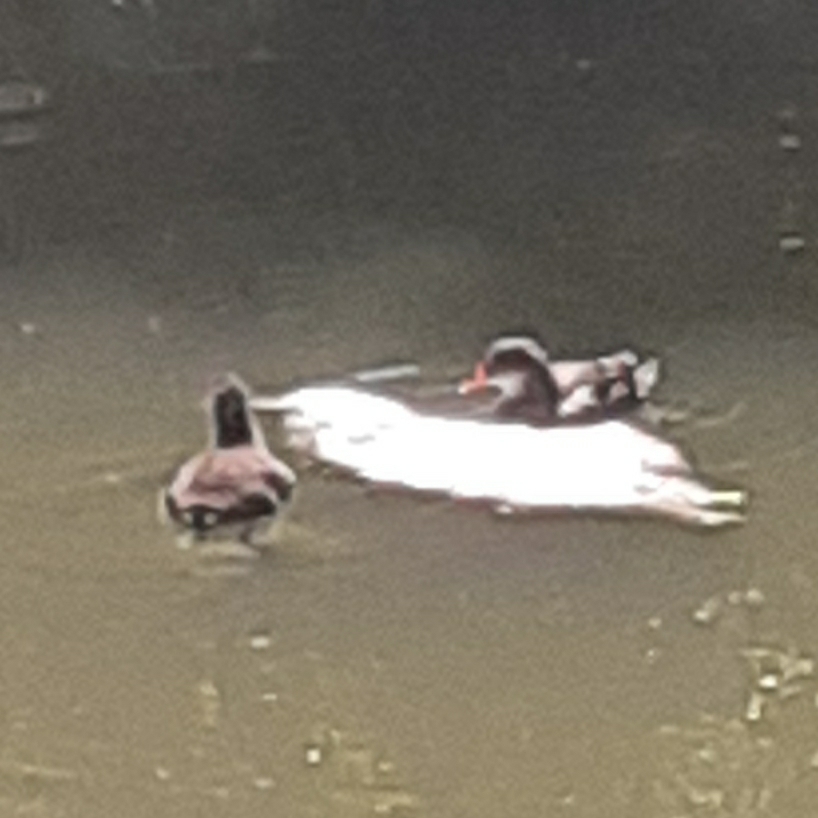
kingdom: Animalia
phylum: Chordata
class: Aves
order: Gruiformes
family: Rallidae
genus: Gallinula
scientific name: Gallinula chloropus
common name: Common moorhen
